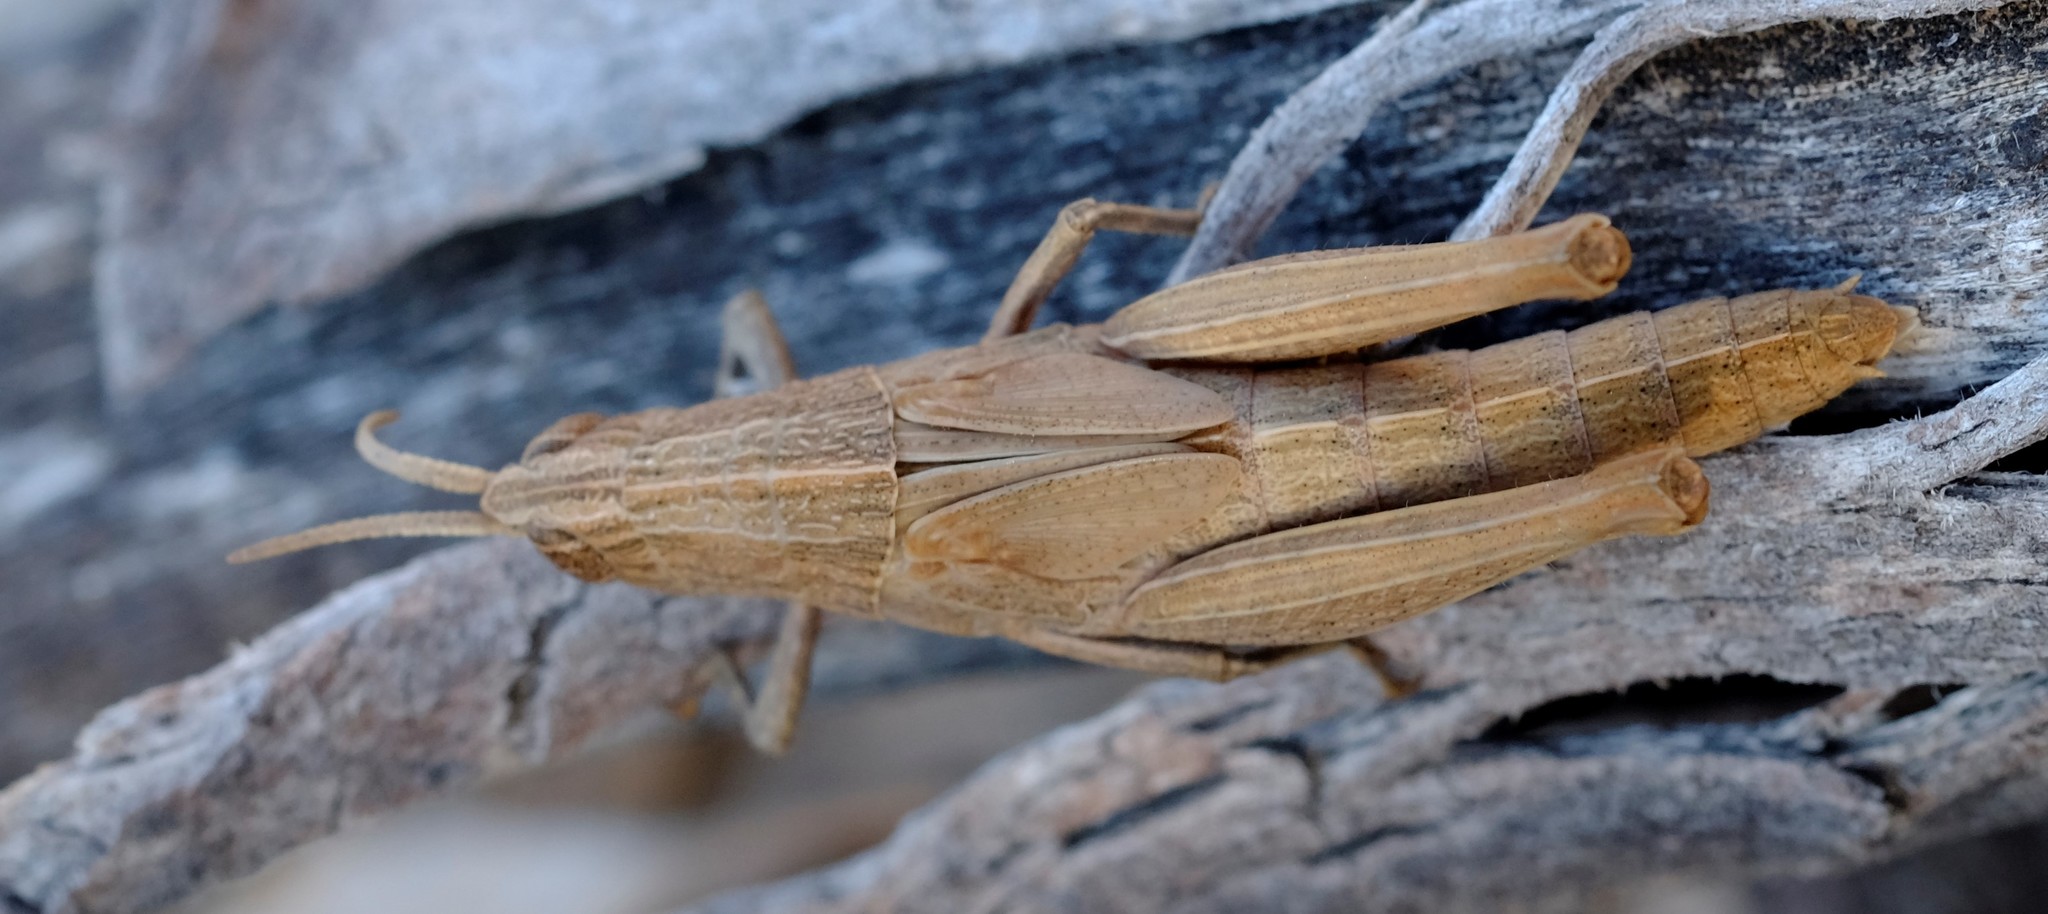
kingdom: Animalia
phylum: Arthropoda
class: Insecta
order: Orthoptera
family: Acrididae
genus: Coryphistes
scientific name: Coryphistes ruricola
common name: Bark-mimicking grasshopper
